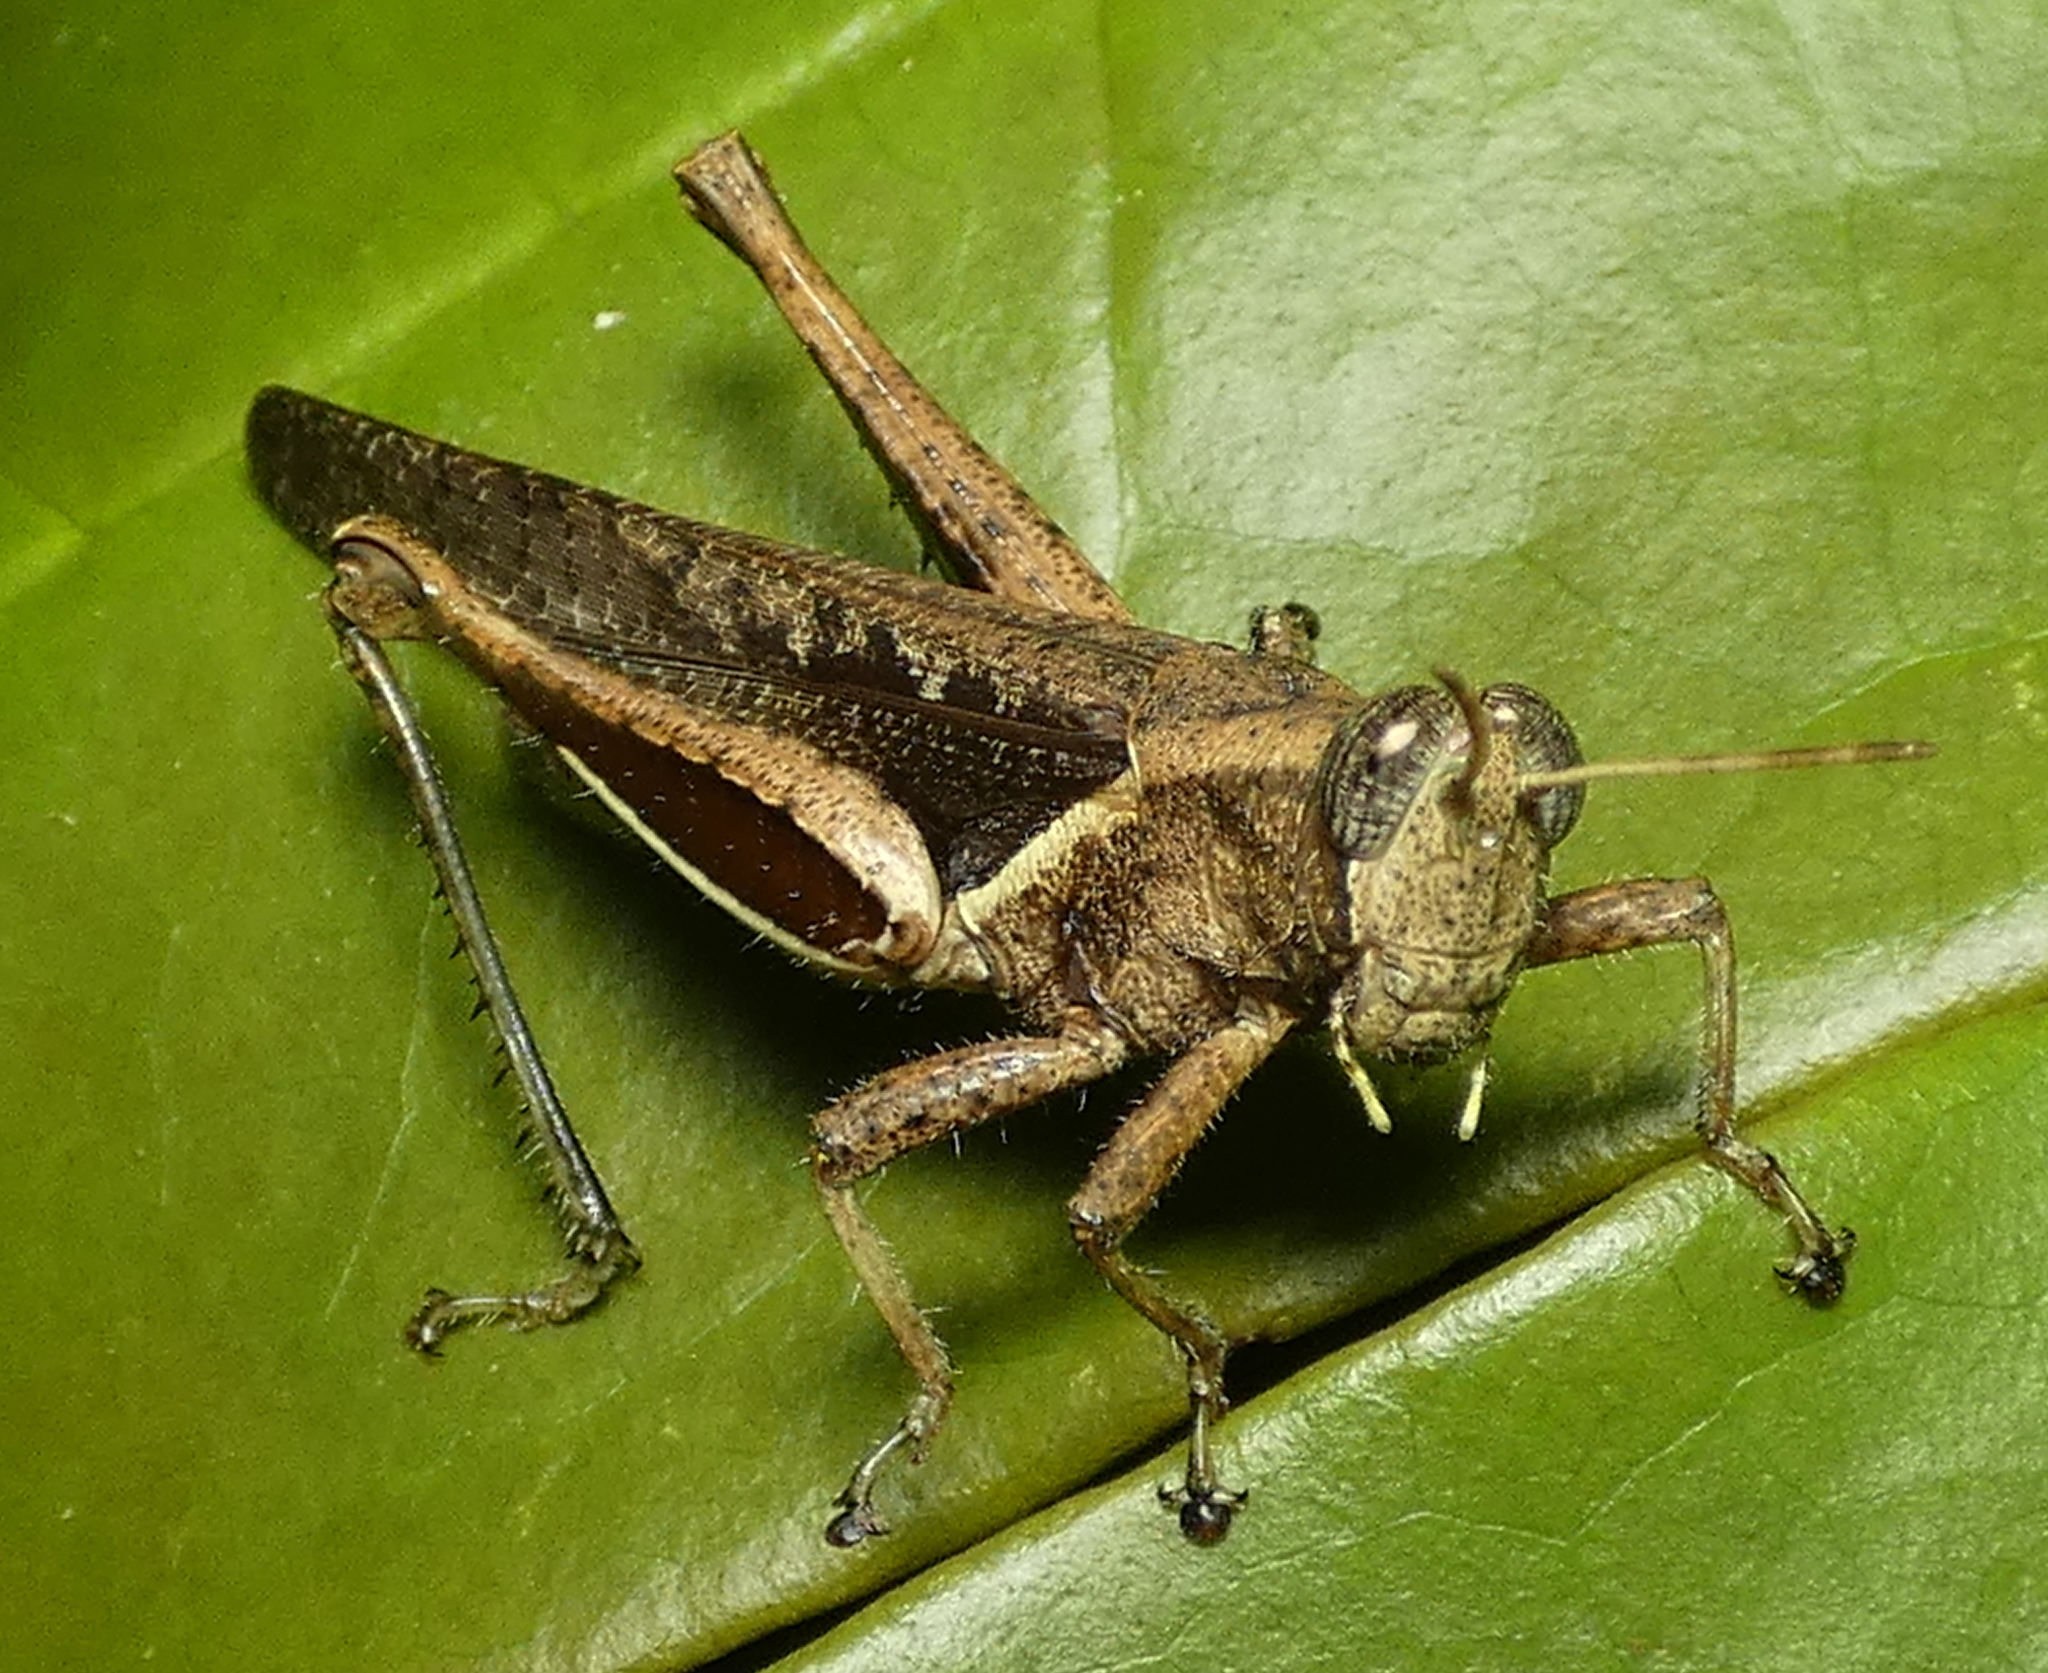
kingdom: Animalia
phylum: Arthropoda
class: Insecta
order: Orthoptera
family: Acrididae
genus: Abracris
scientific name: Abracris flavolineata
